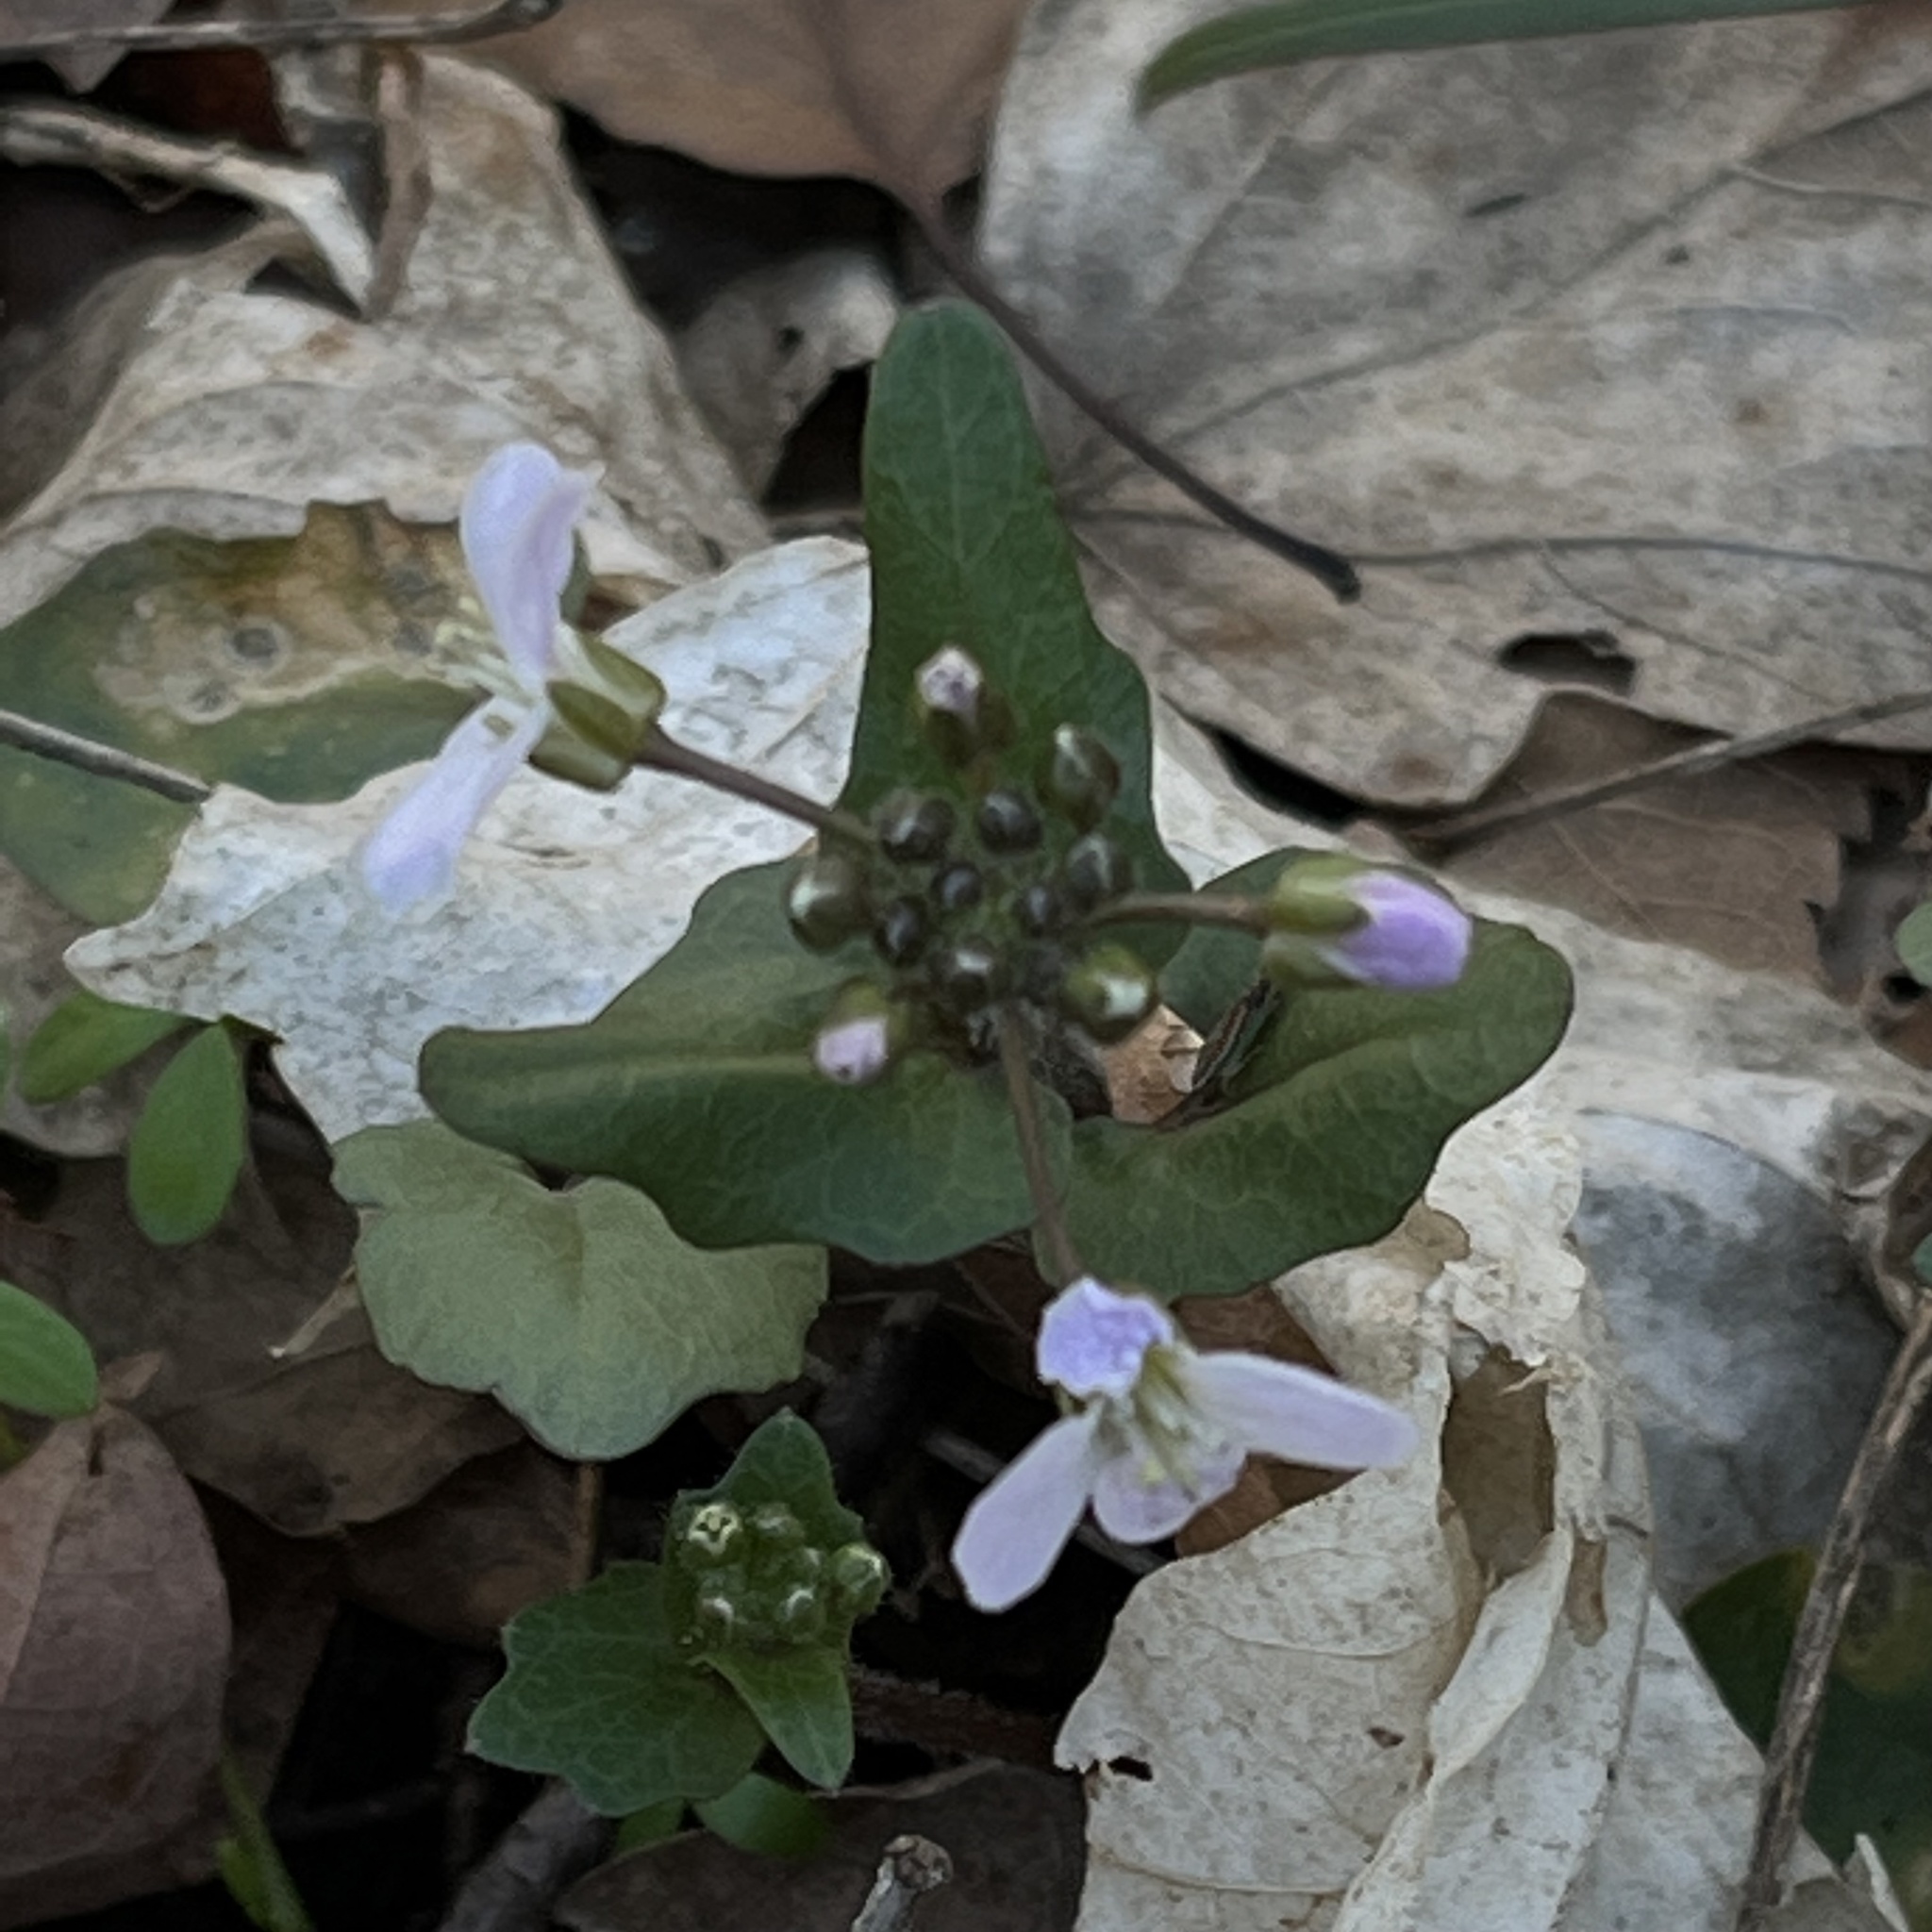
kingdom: Plantae
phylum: Tracheophyta
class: Magnoliopsida
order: Brassicales
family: Brassicaceae
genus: Cardamine
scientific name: Cardamine douglassii
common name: Purple cress
